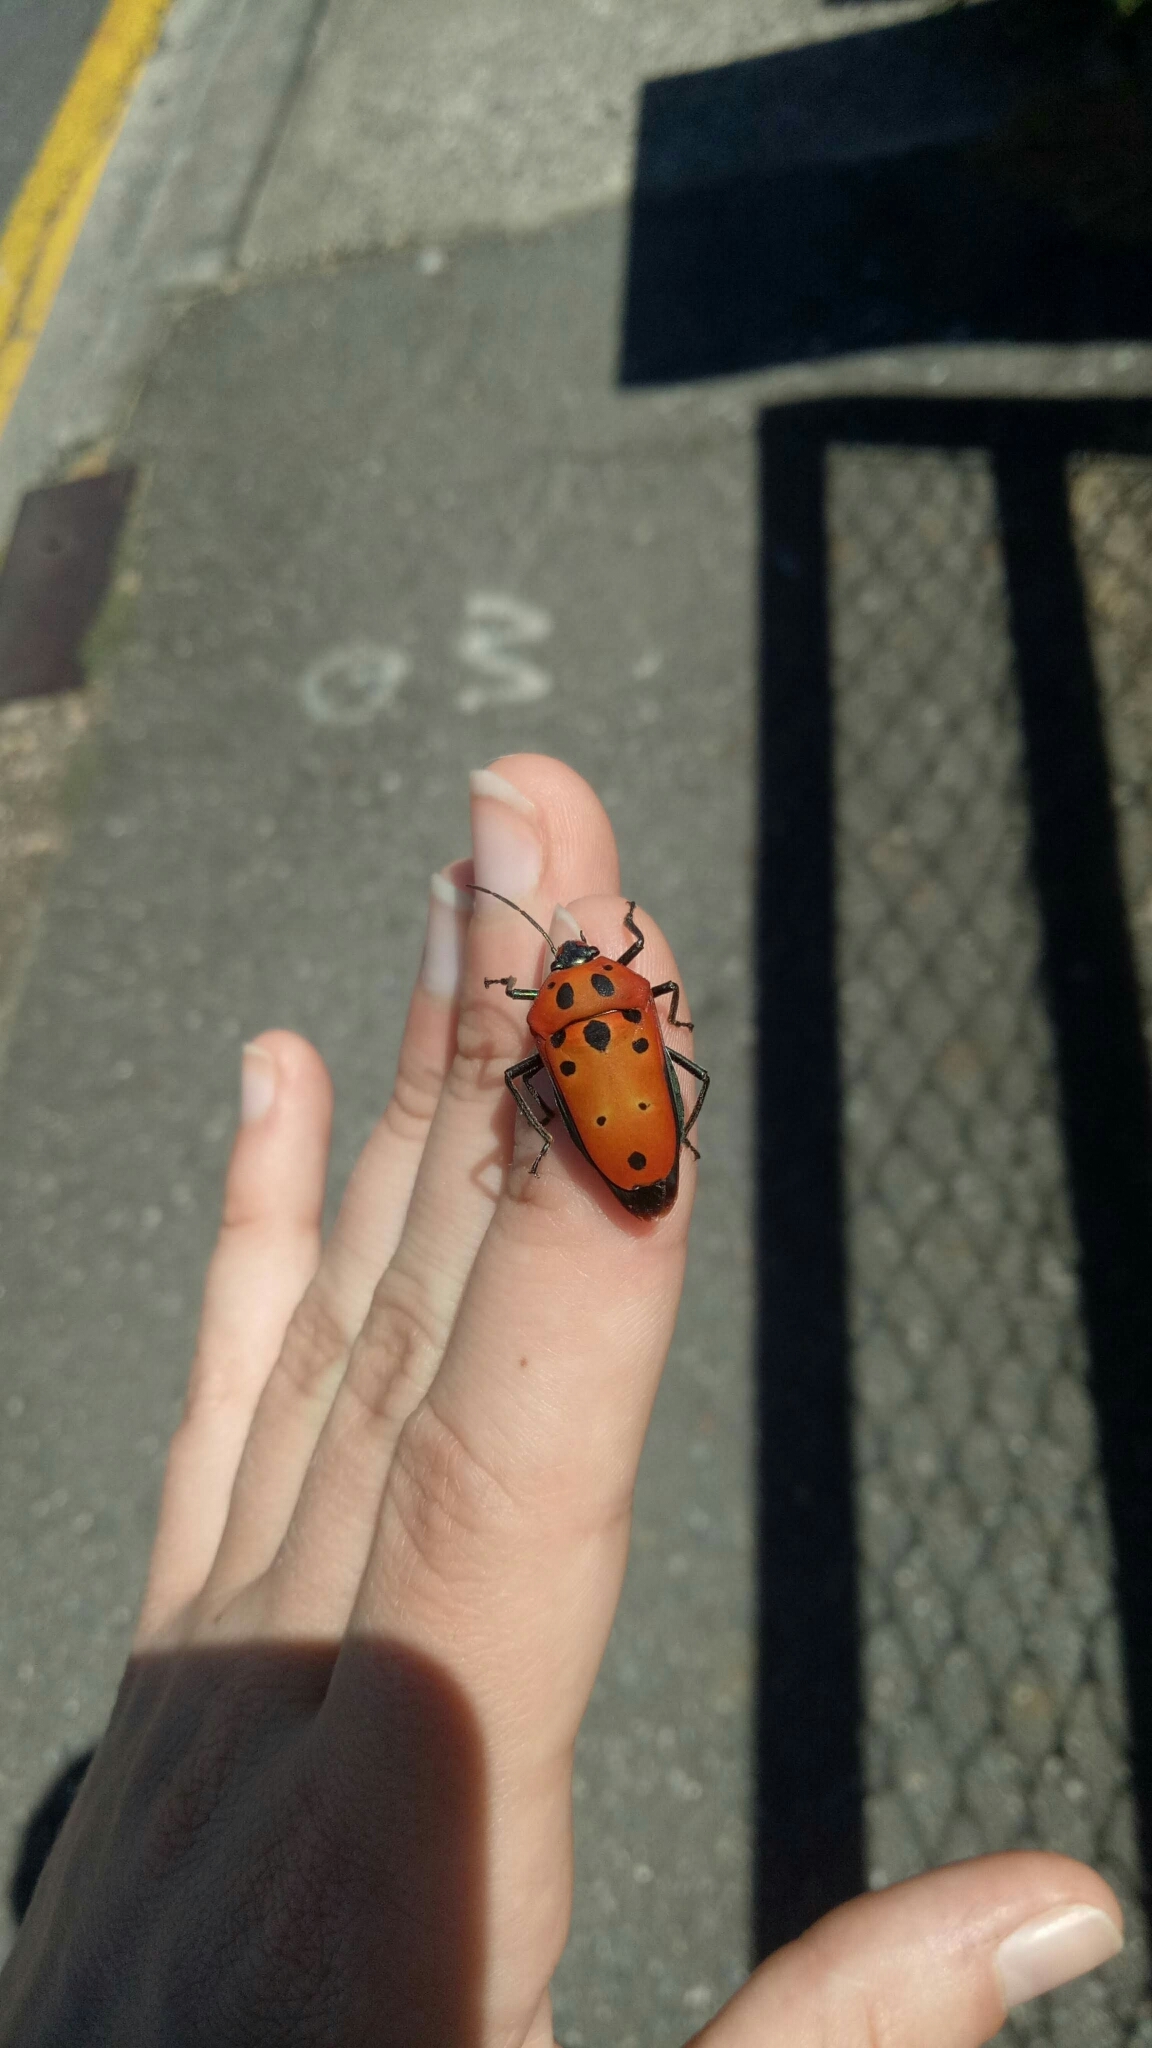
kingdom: Animalia
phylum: Arthropoda
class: Insecta
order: Hemiptera
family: Scutelleridae
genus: Cantao
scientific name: Cantao
